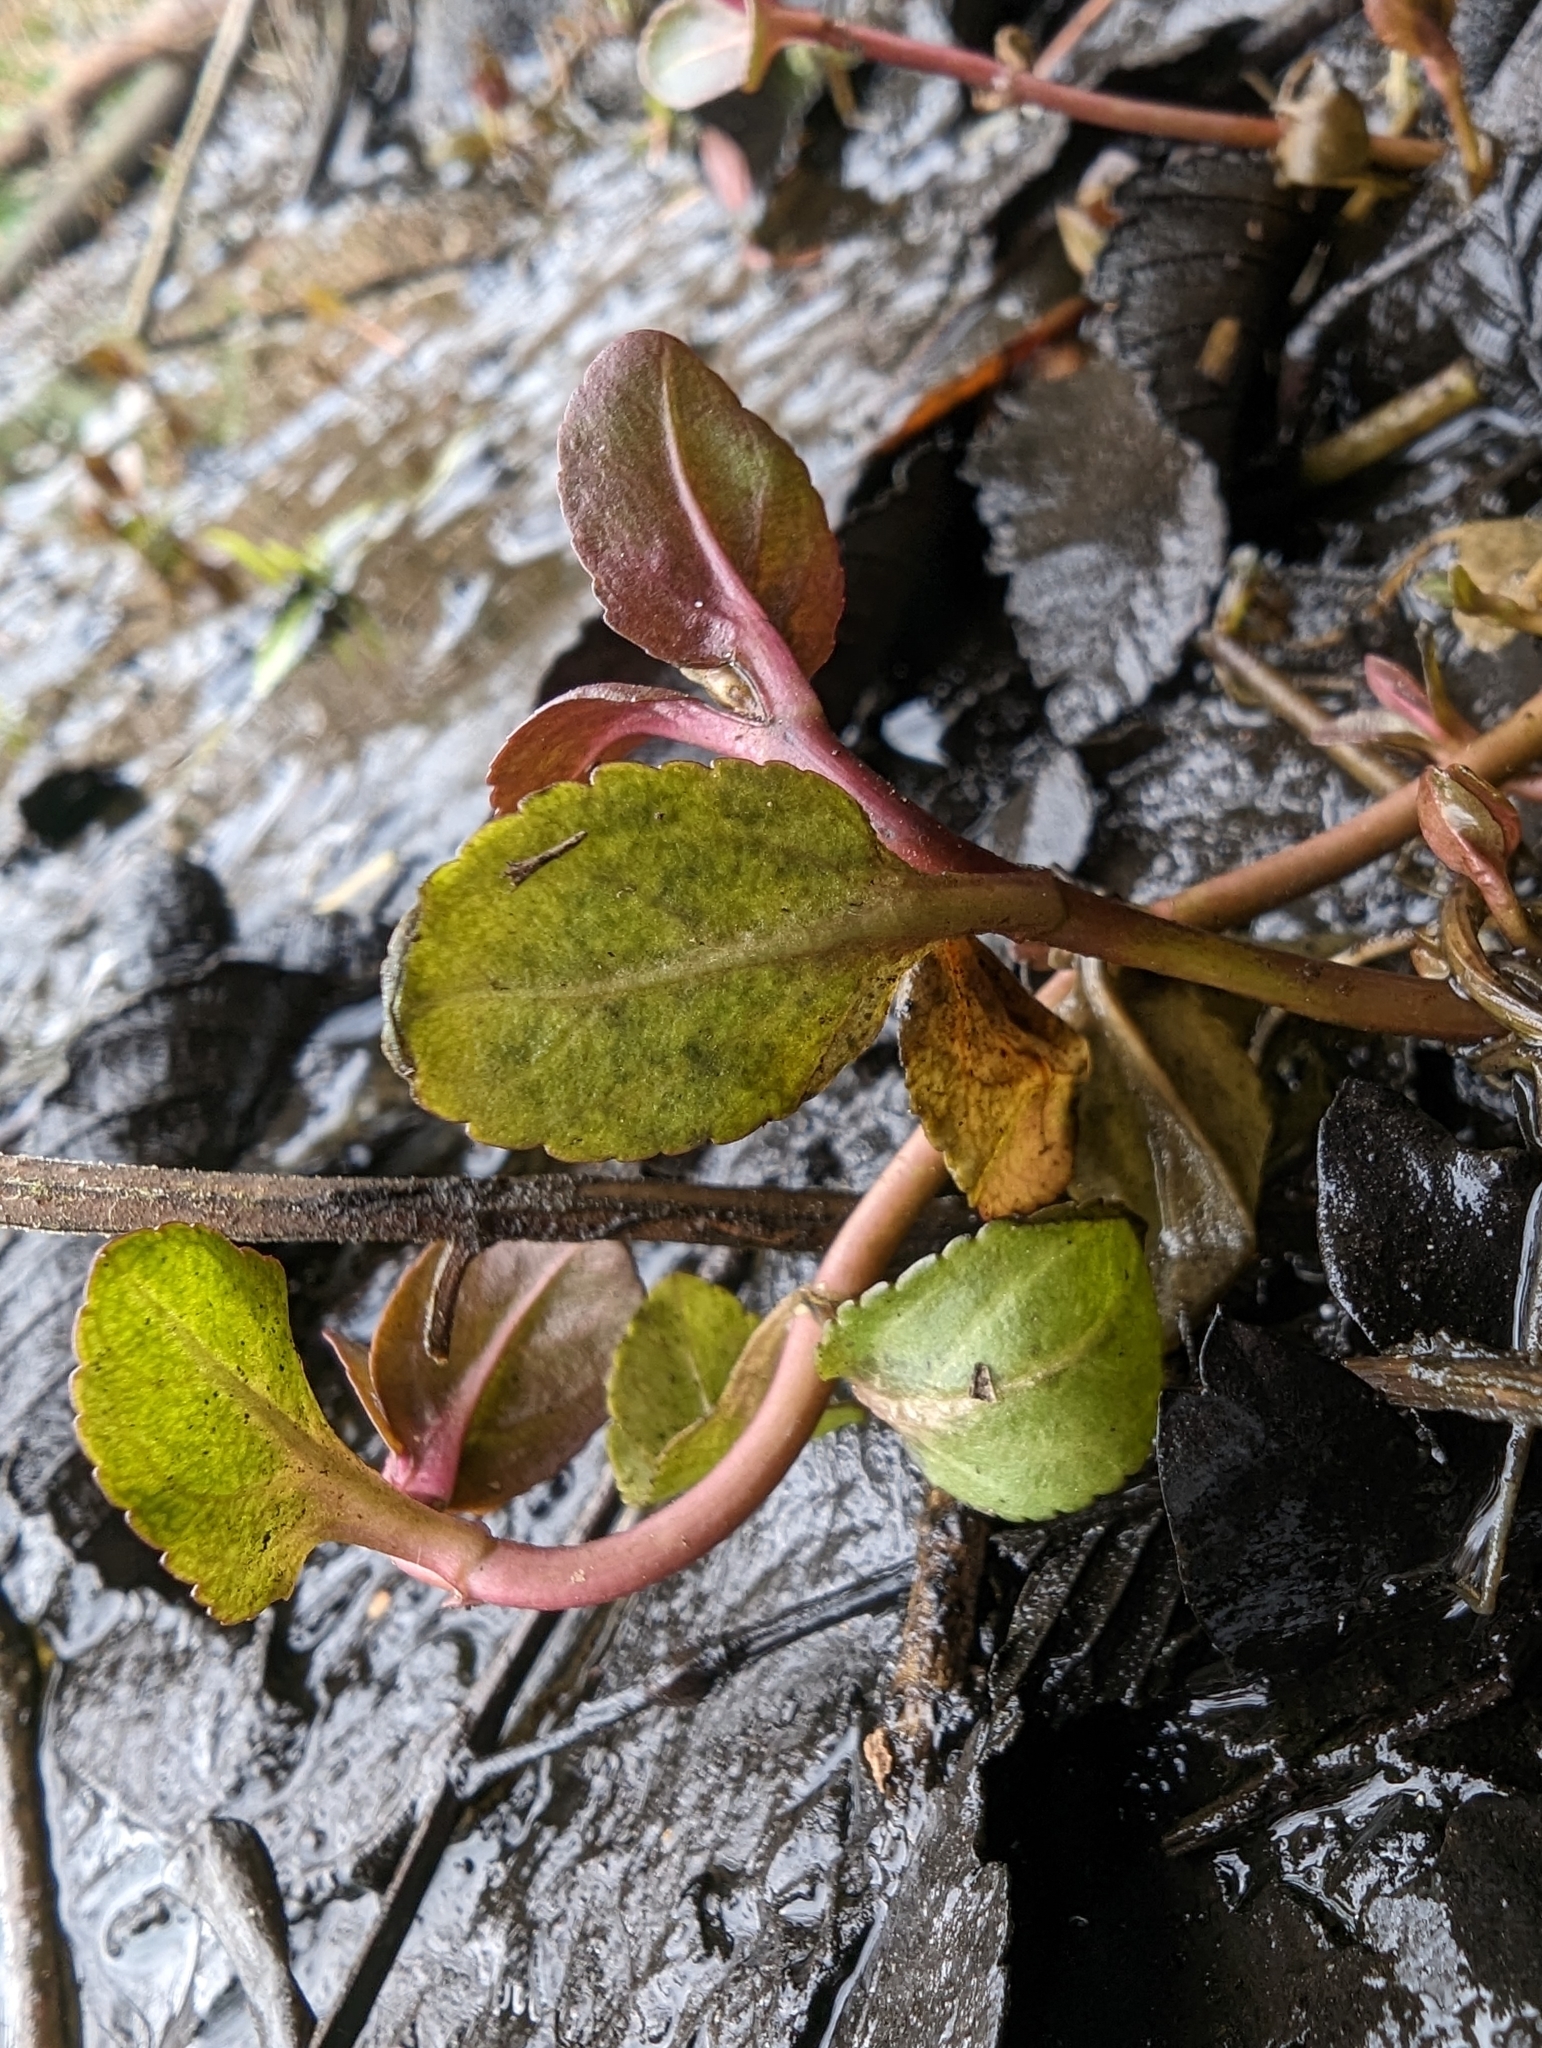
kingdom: Plantae
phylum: Tracheophyta
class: Magnoliopsida
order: Lamiales
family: Plantaginaceae
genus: Veronica
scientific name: Veronica americana
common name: American brooklime
